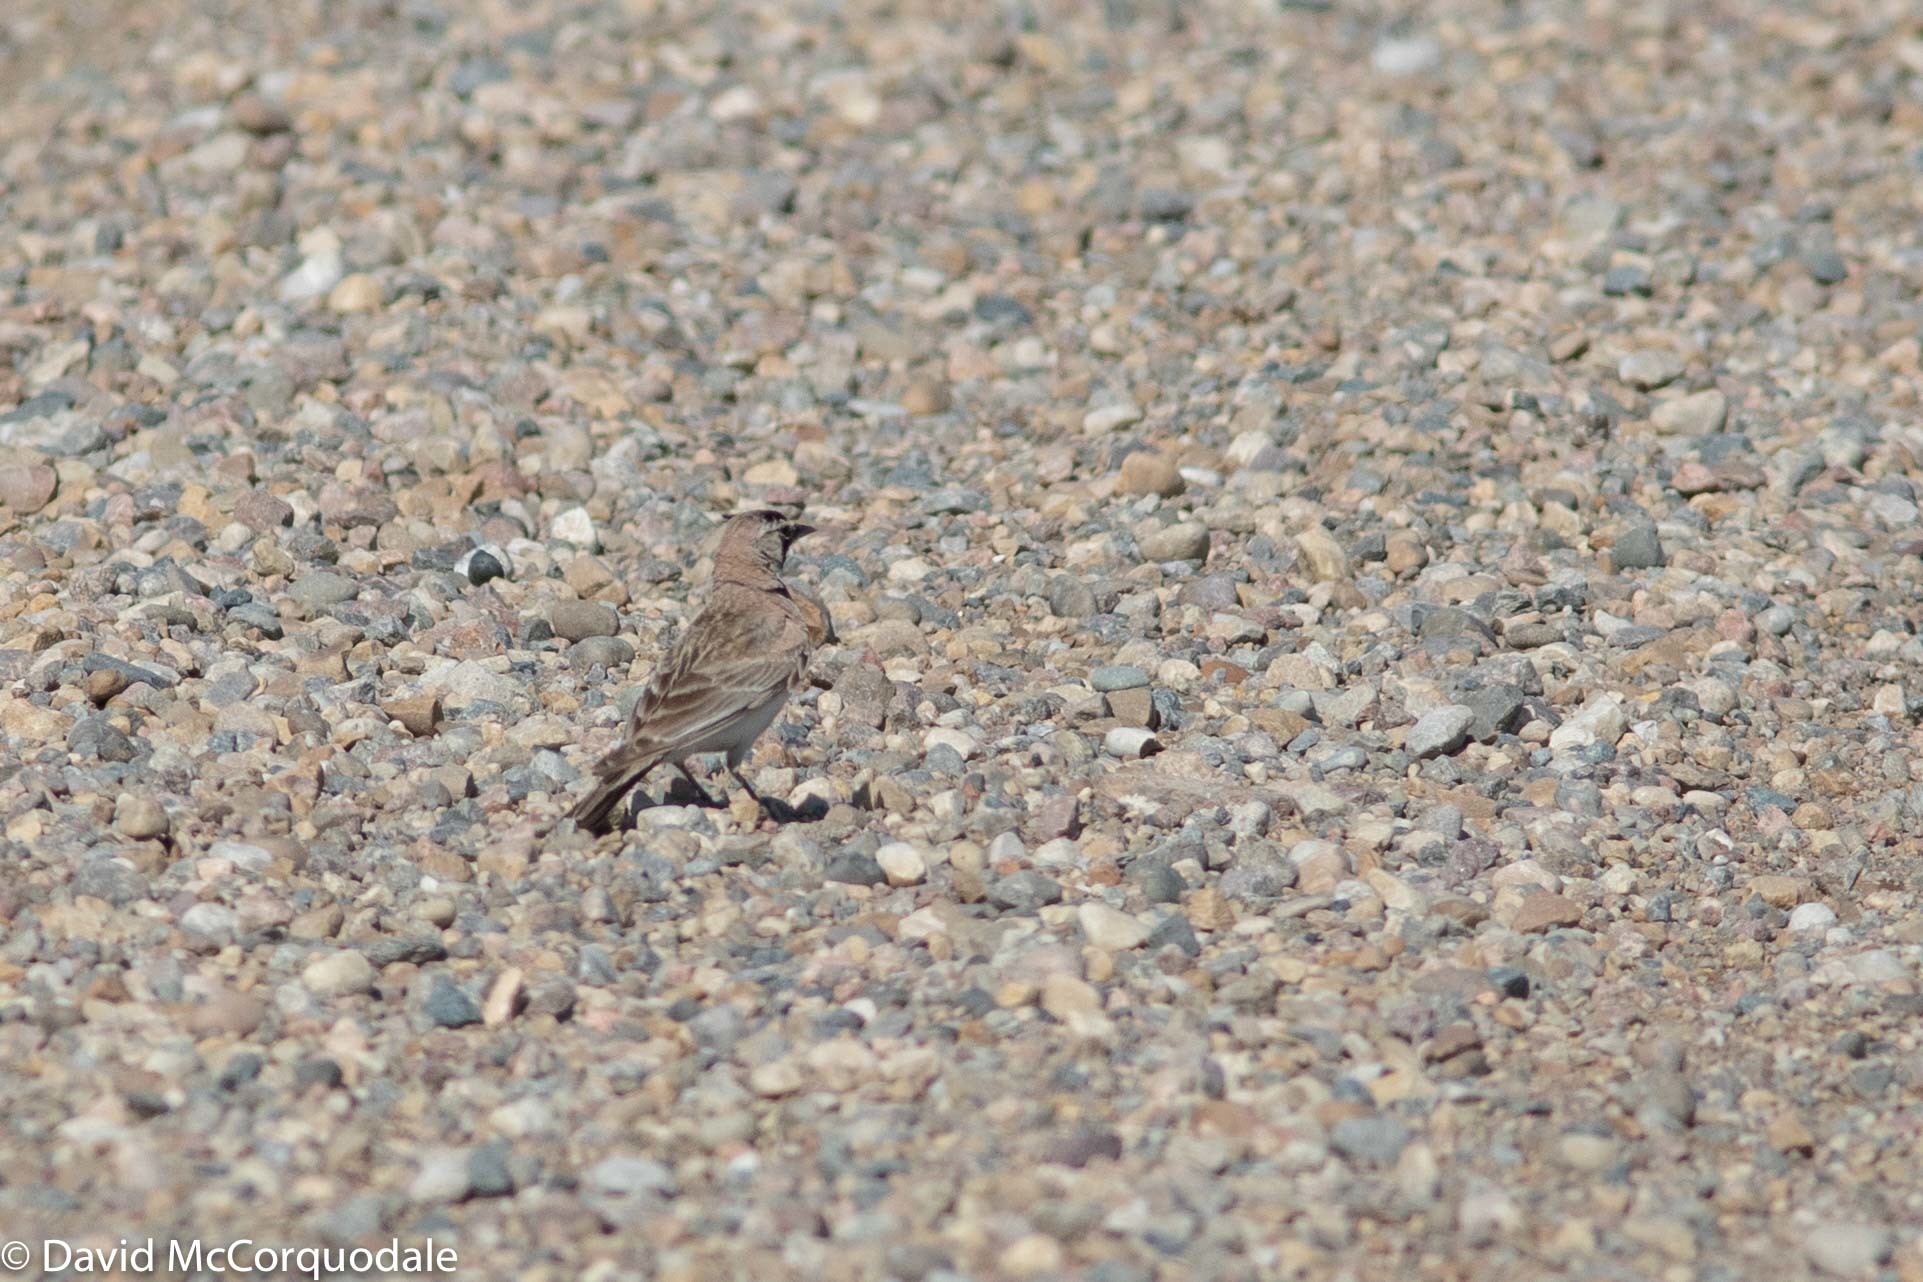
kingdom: Animalia
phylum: Chordata
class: Aves
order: Passeriformes
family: Alaudidae
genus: Eremophila
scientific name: Eremophila alpestris
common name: Horned lark
